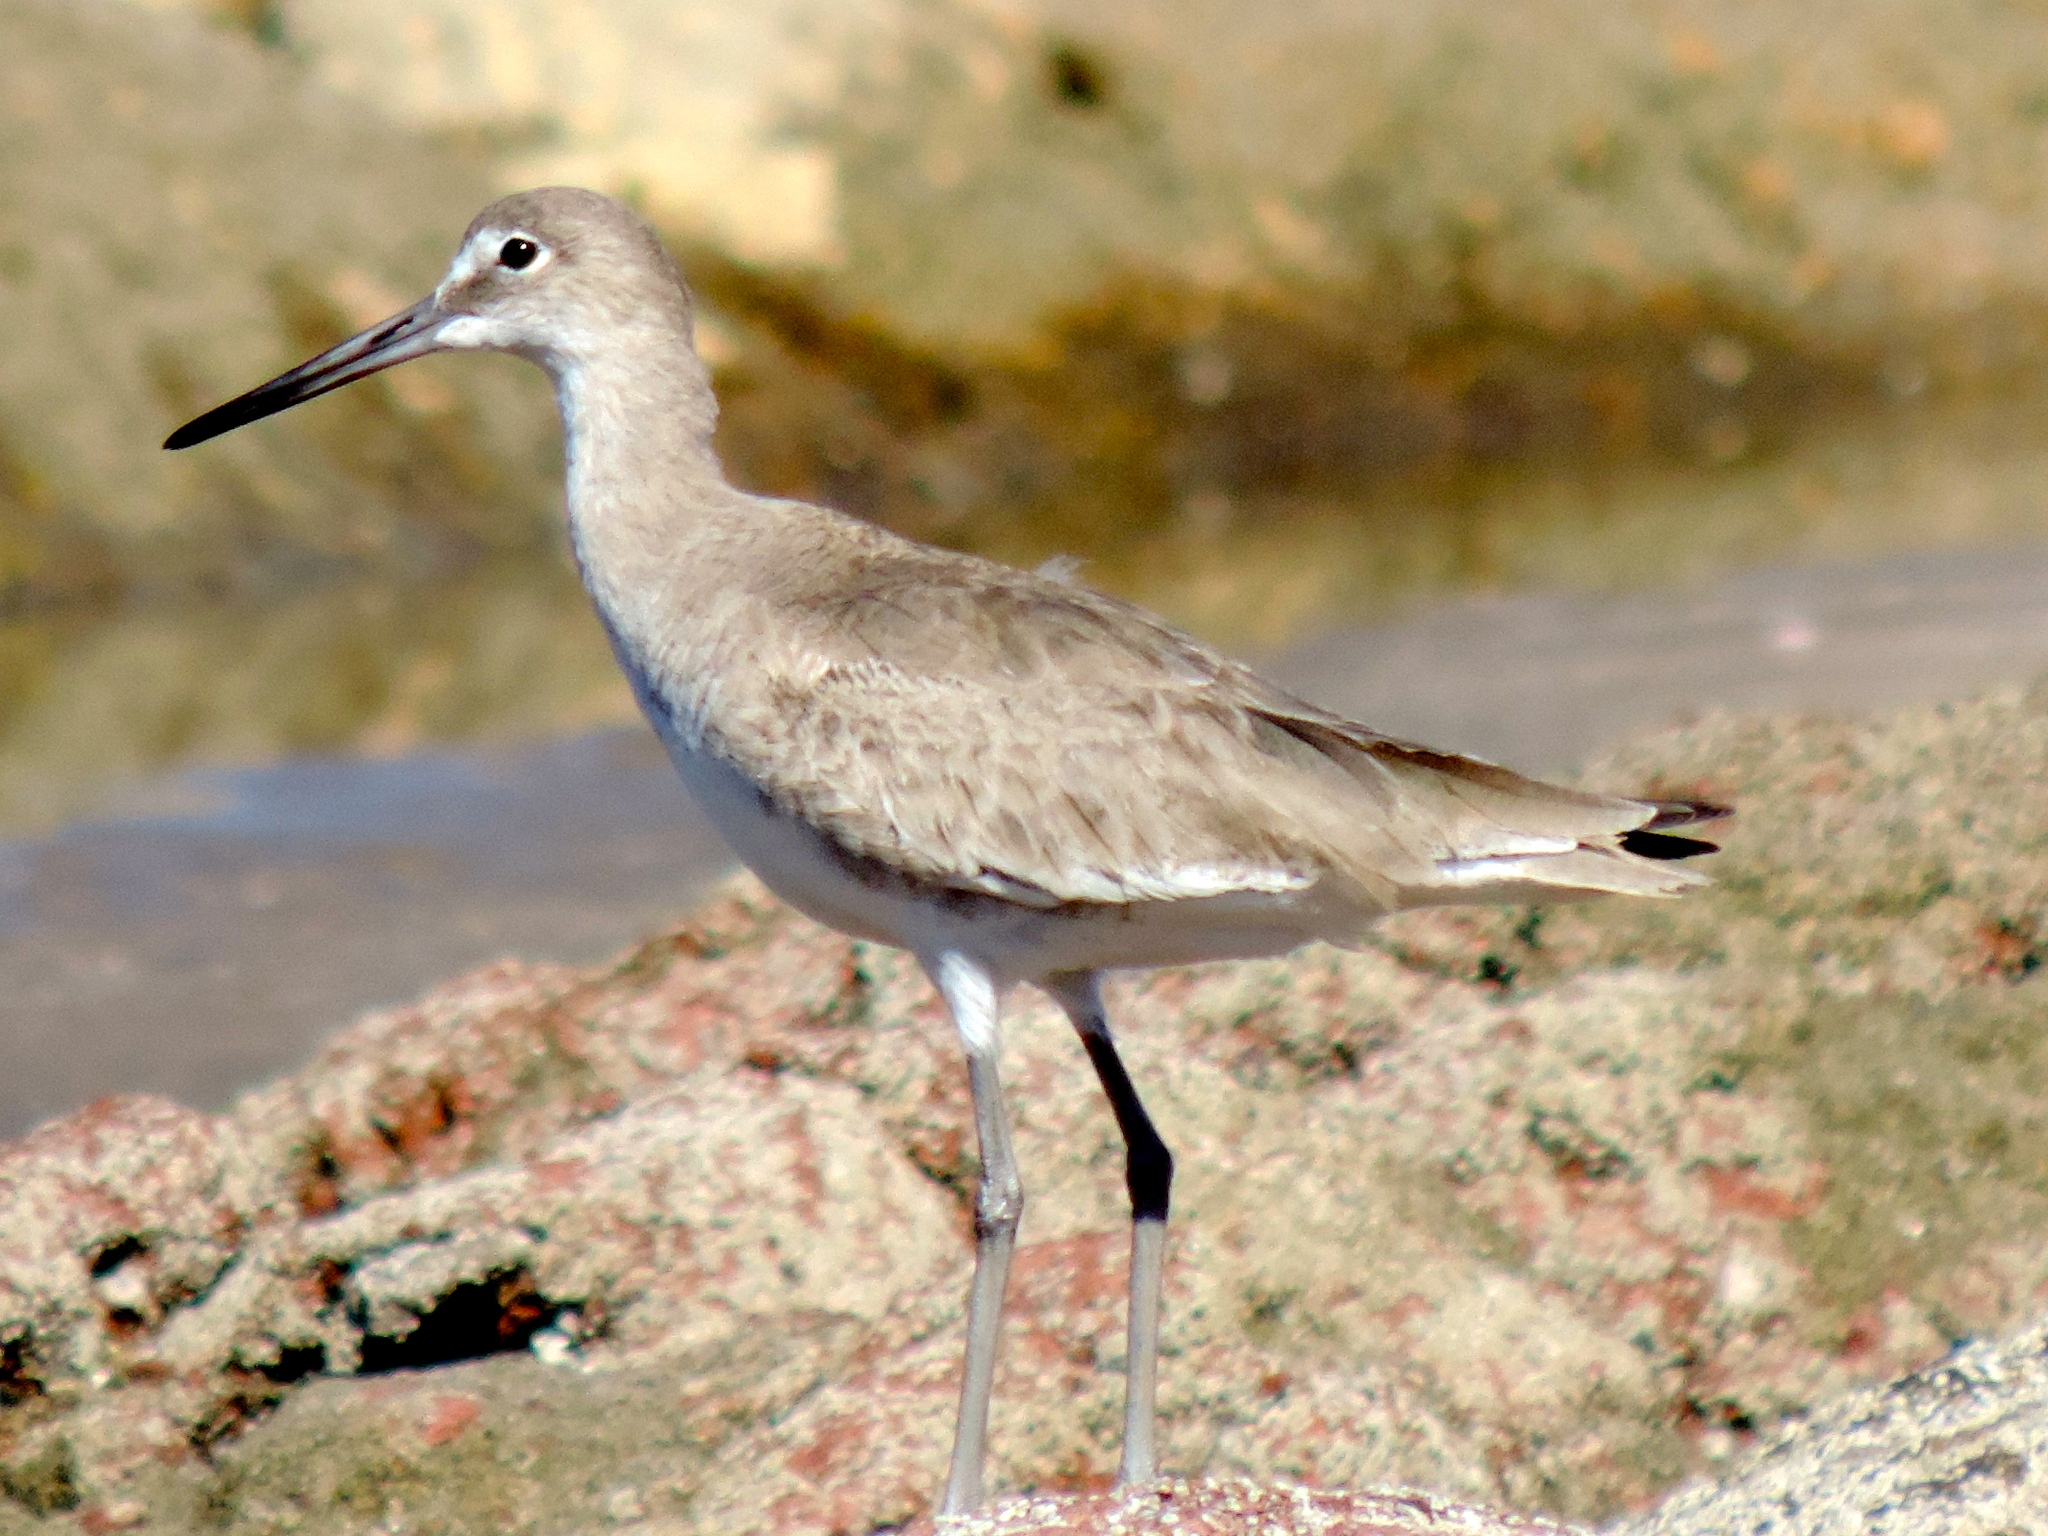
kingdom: Animalia
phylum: Chordata
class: Aves
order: Charadriiformes
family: Scolopacidae
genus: Tringa
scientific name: Tringa semipalmata
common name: Willet
